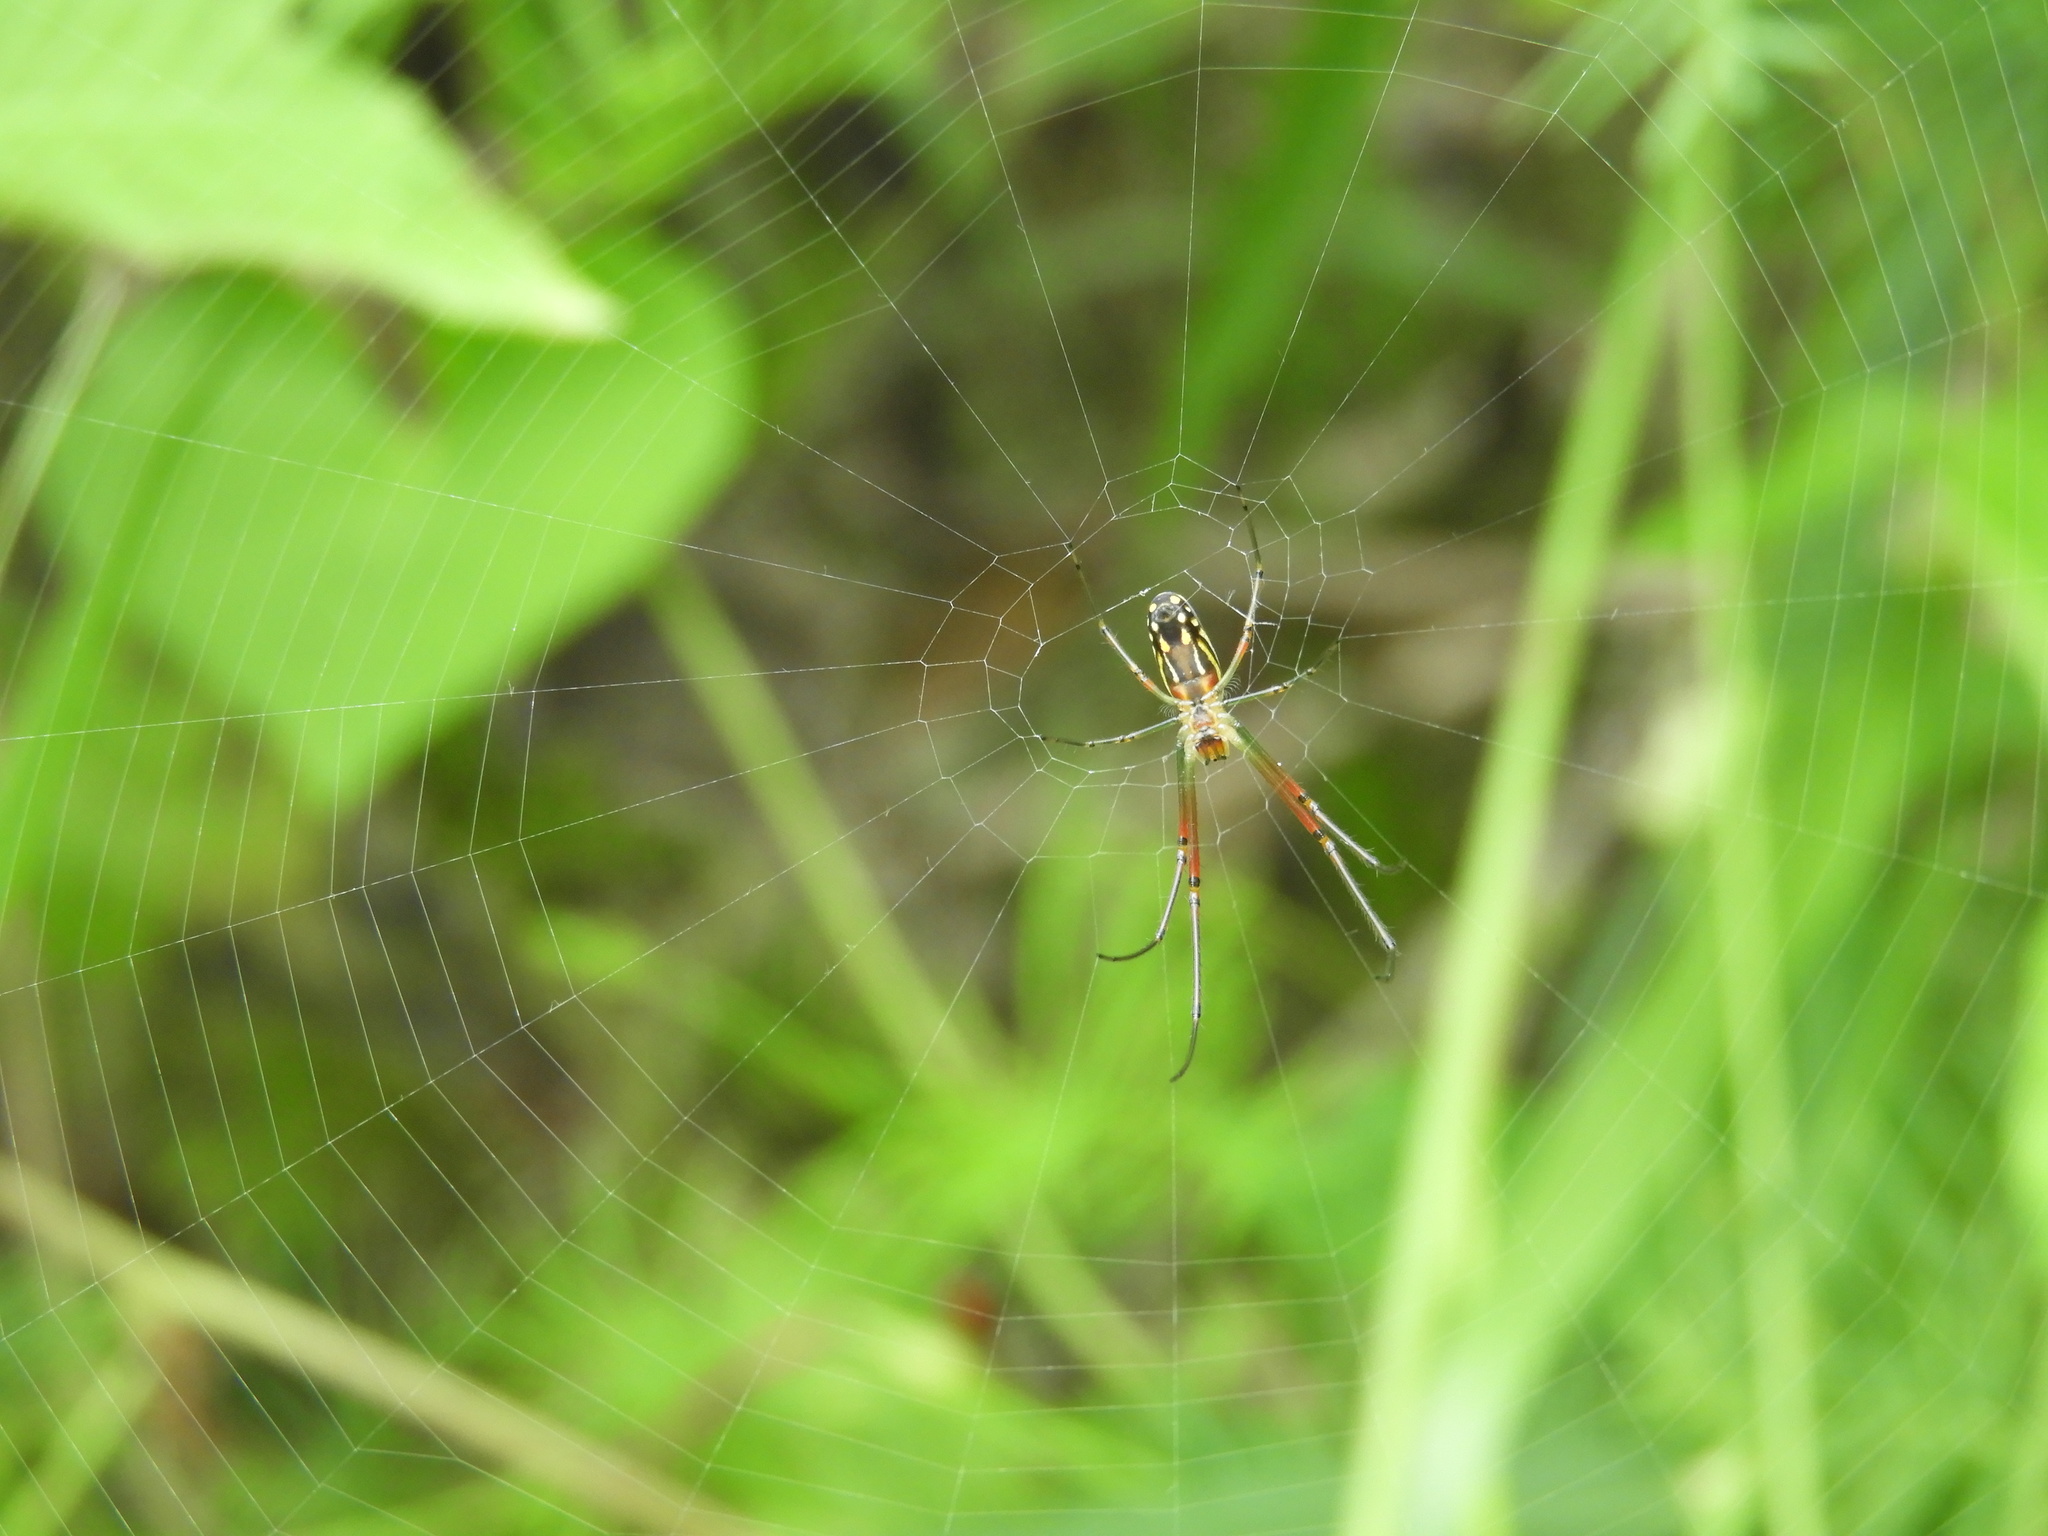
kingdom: Animalia
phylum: Arthropoda
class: Arachnida
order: Araneae
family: Tetragnathidae
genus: Leucauge
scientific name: Leucauge
